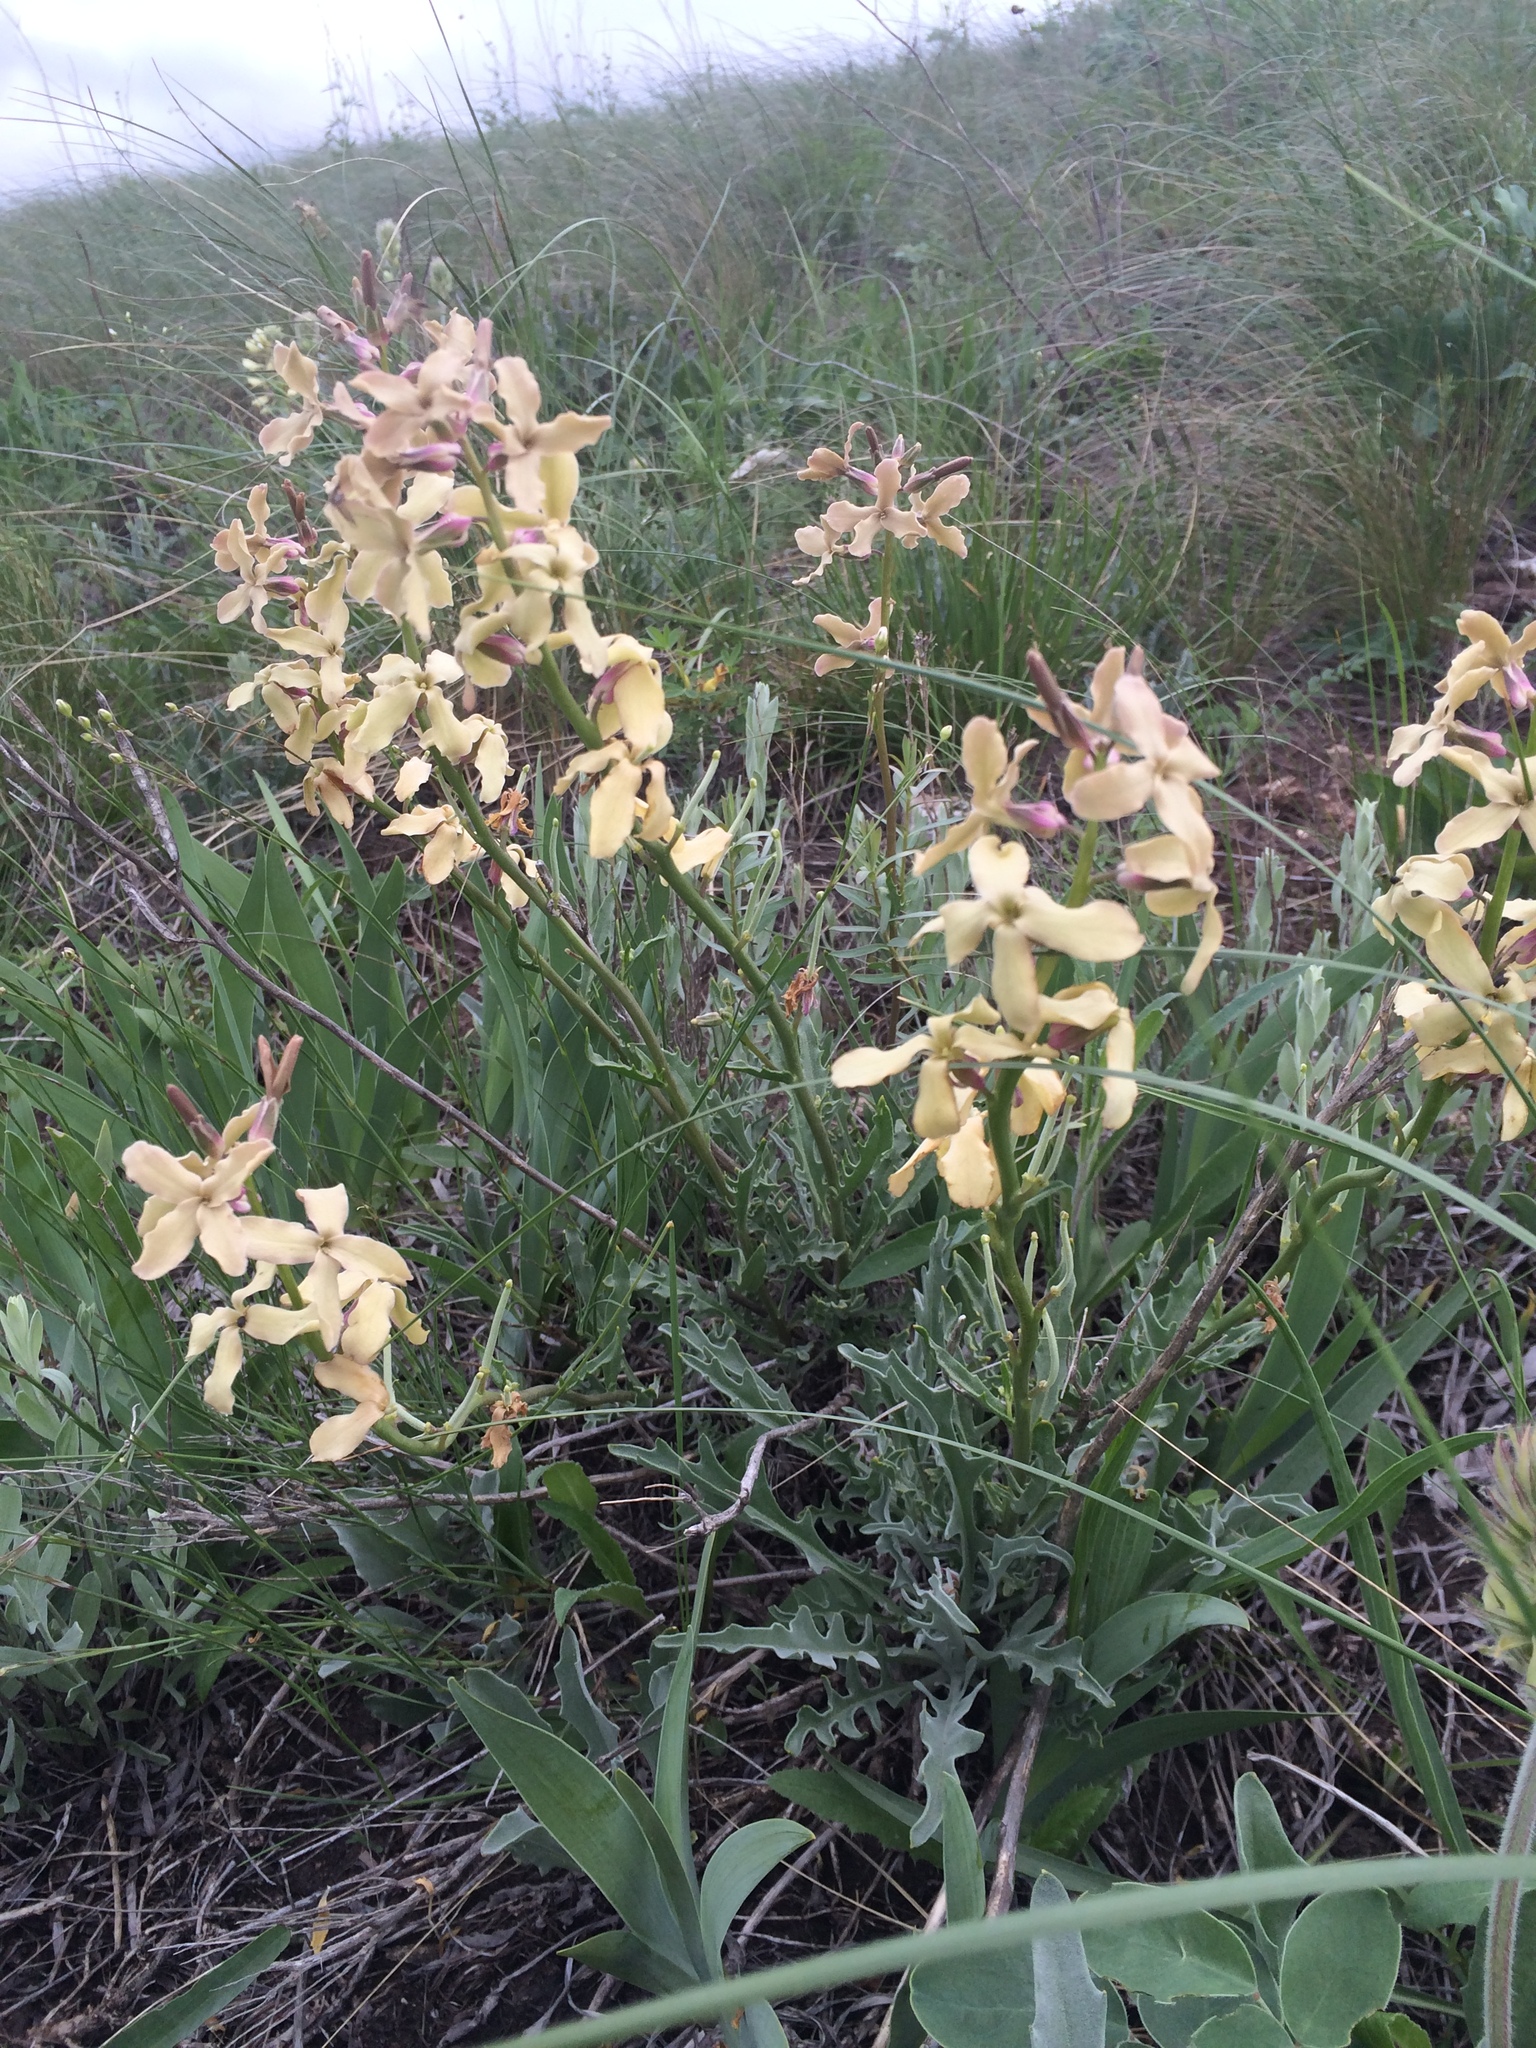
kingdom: Plantae
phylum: Tracheophyta
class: Magnoliopsida
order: Brassicales
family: Brassicaceae
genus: Matthiola
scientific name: Matthiola fragrans
